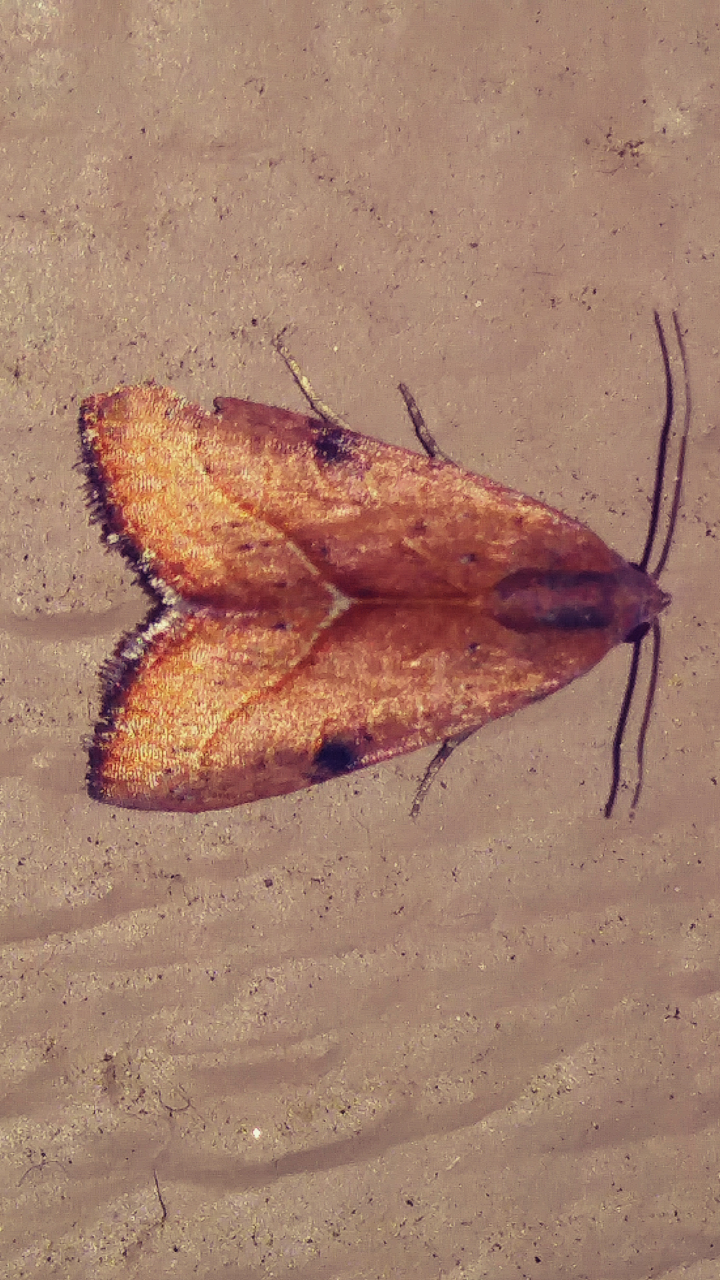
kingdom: Animalia
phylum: Arthropoda
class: Insecta
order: Lepidoptera
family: Noctuidae
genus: Galgula
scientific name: Galgula partita
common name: Wedgeling
